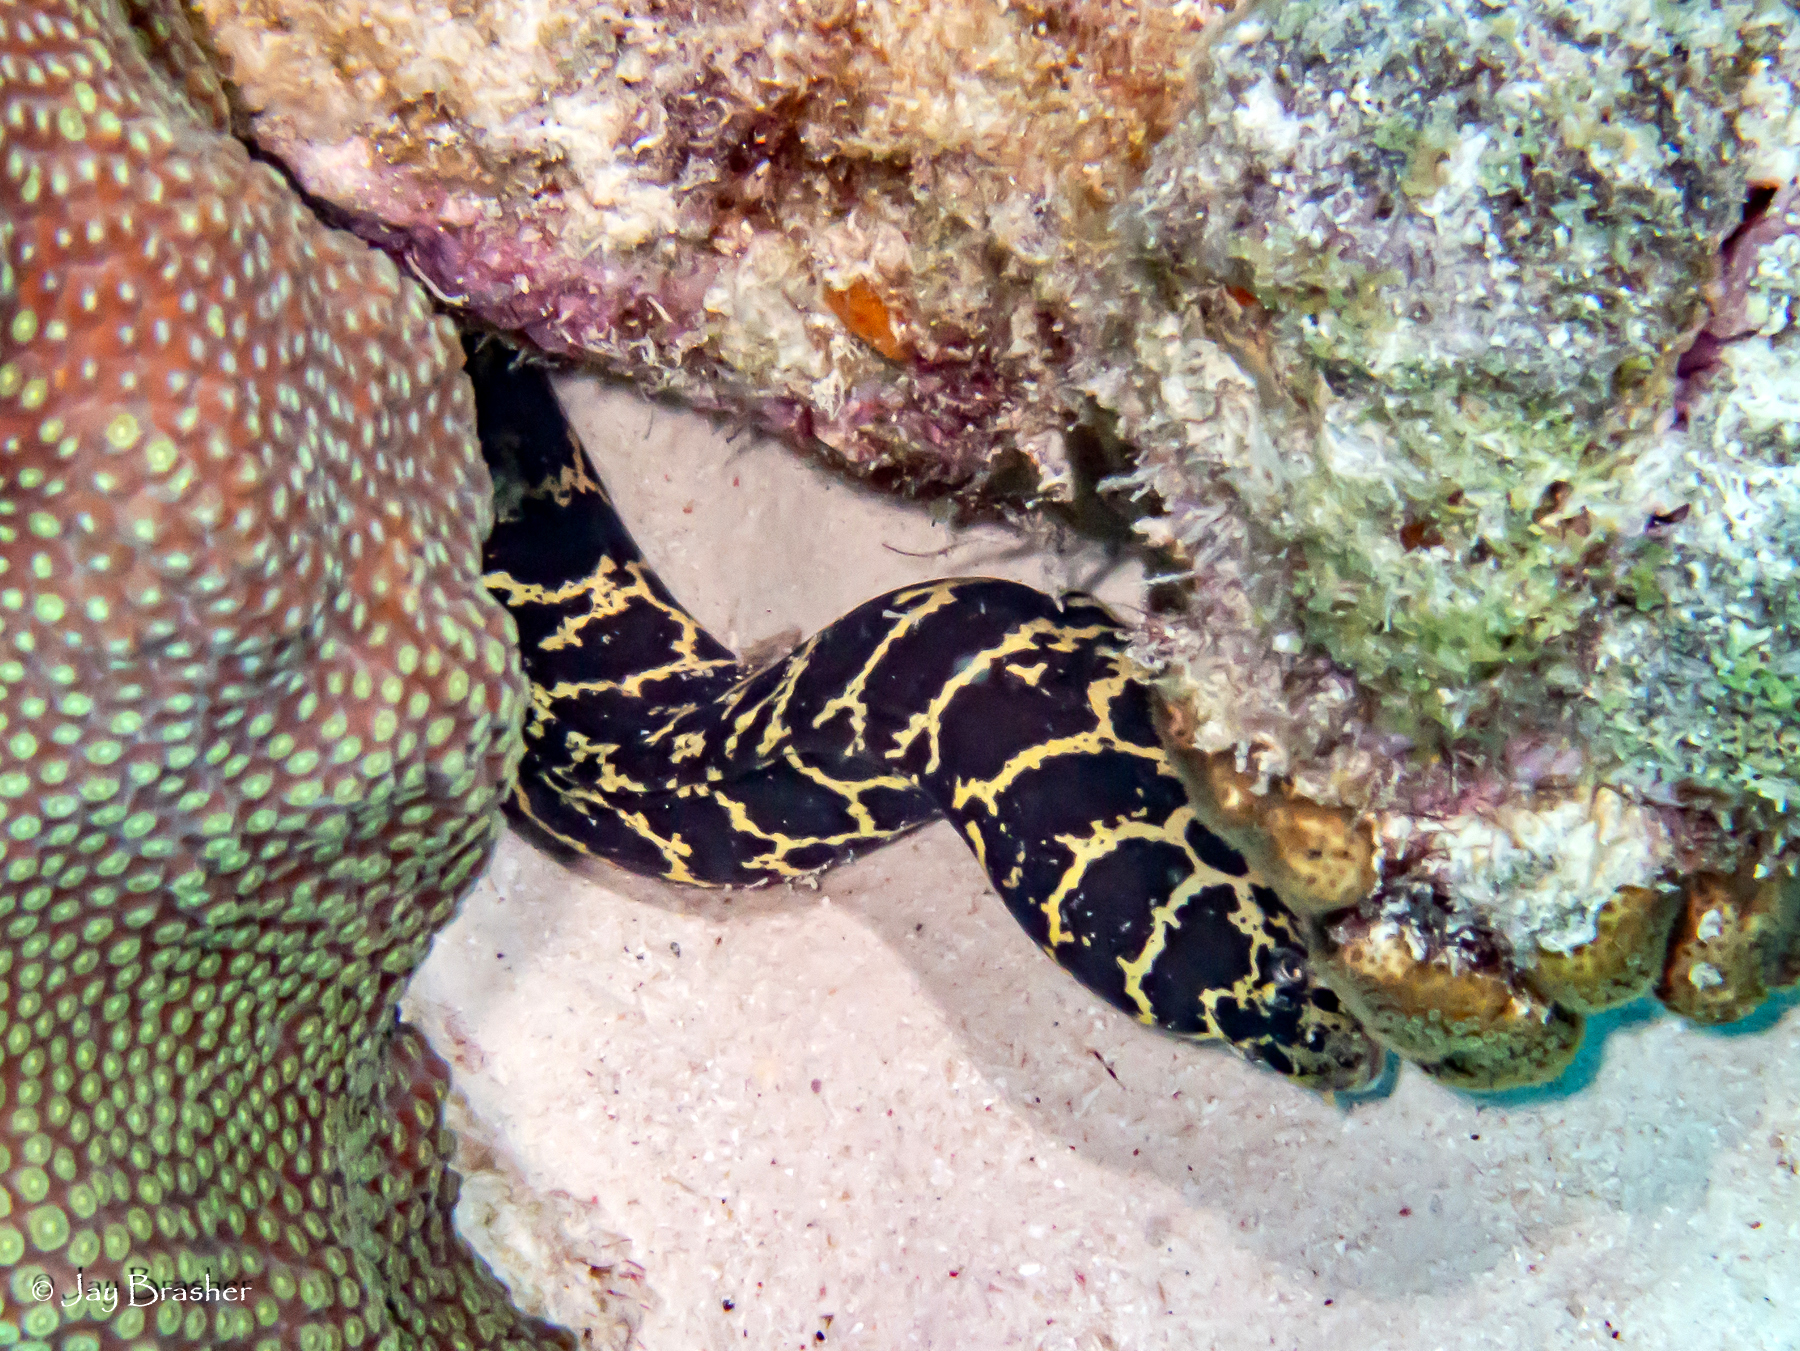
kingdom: Animalia
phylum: Chordata
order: Anguilliformes
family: Muraenidae
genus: Echidna
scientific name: Echidna catenata
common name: Chain moray
